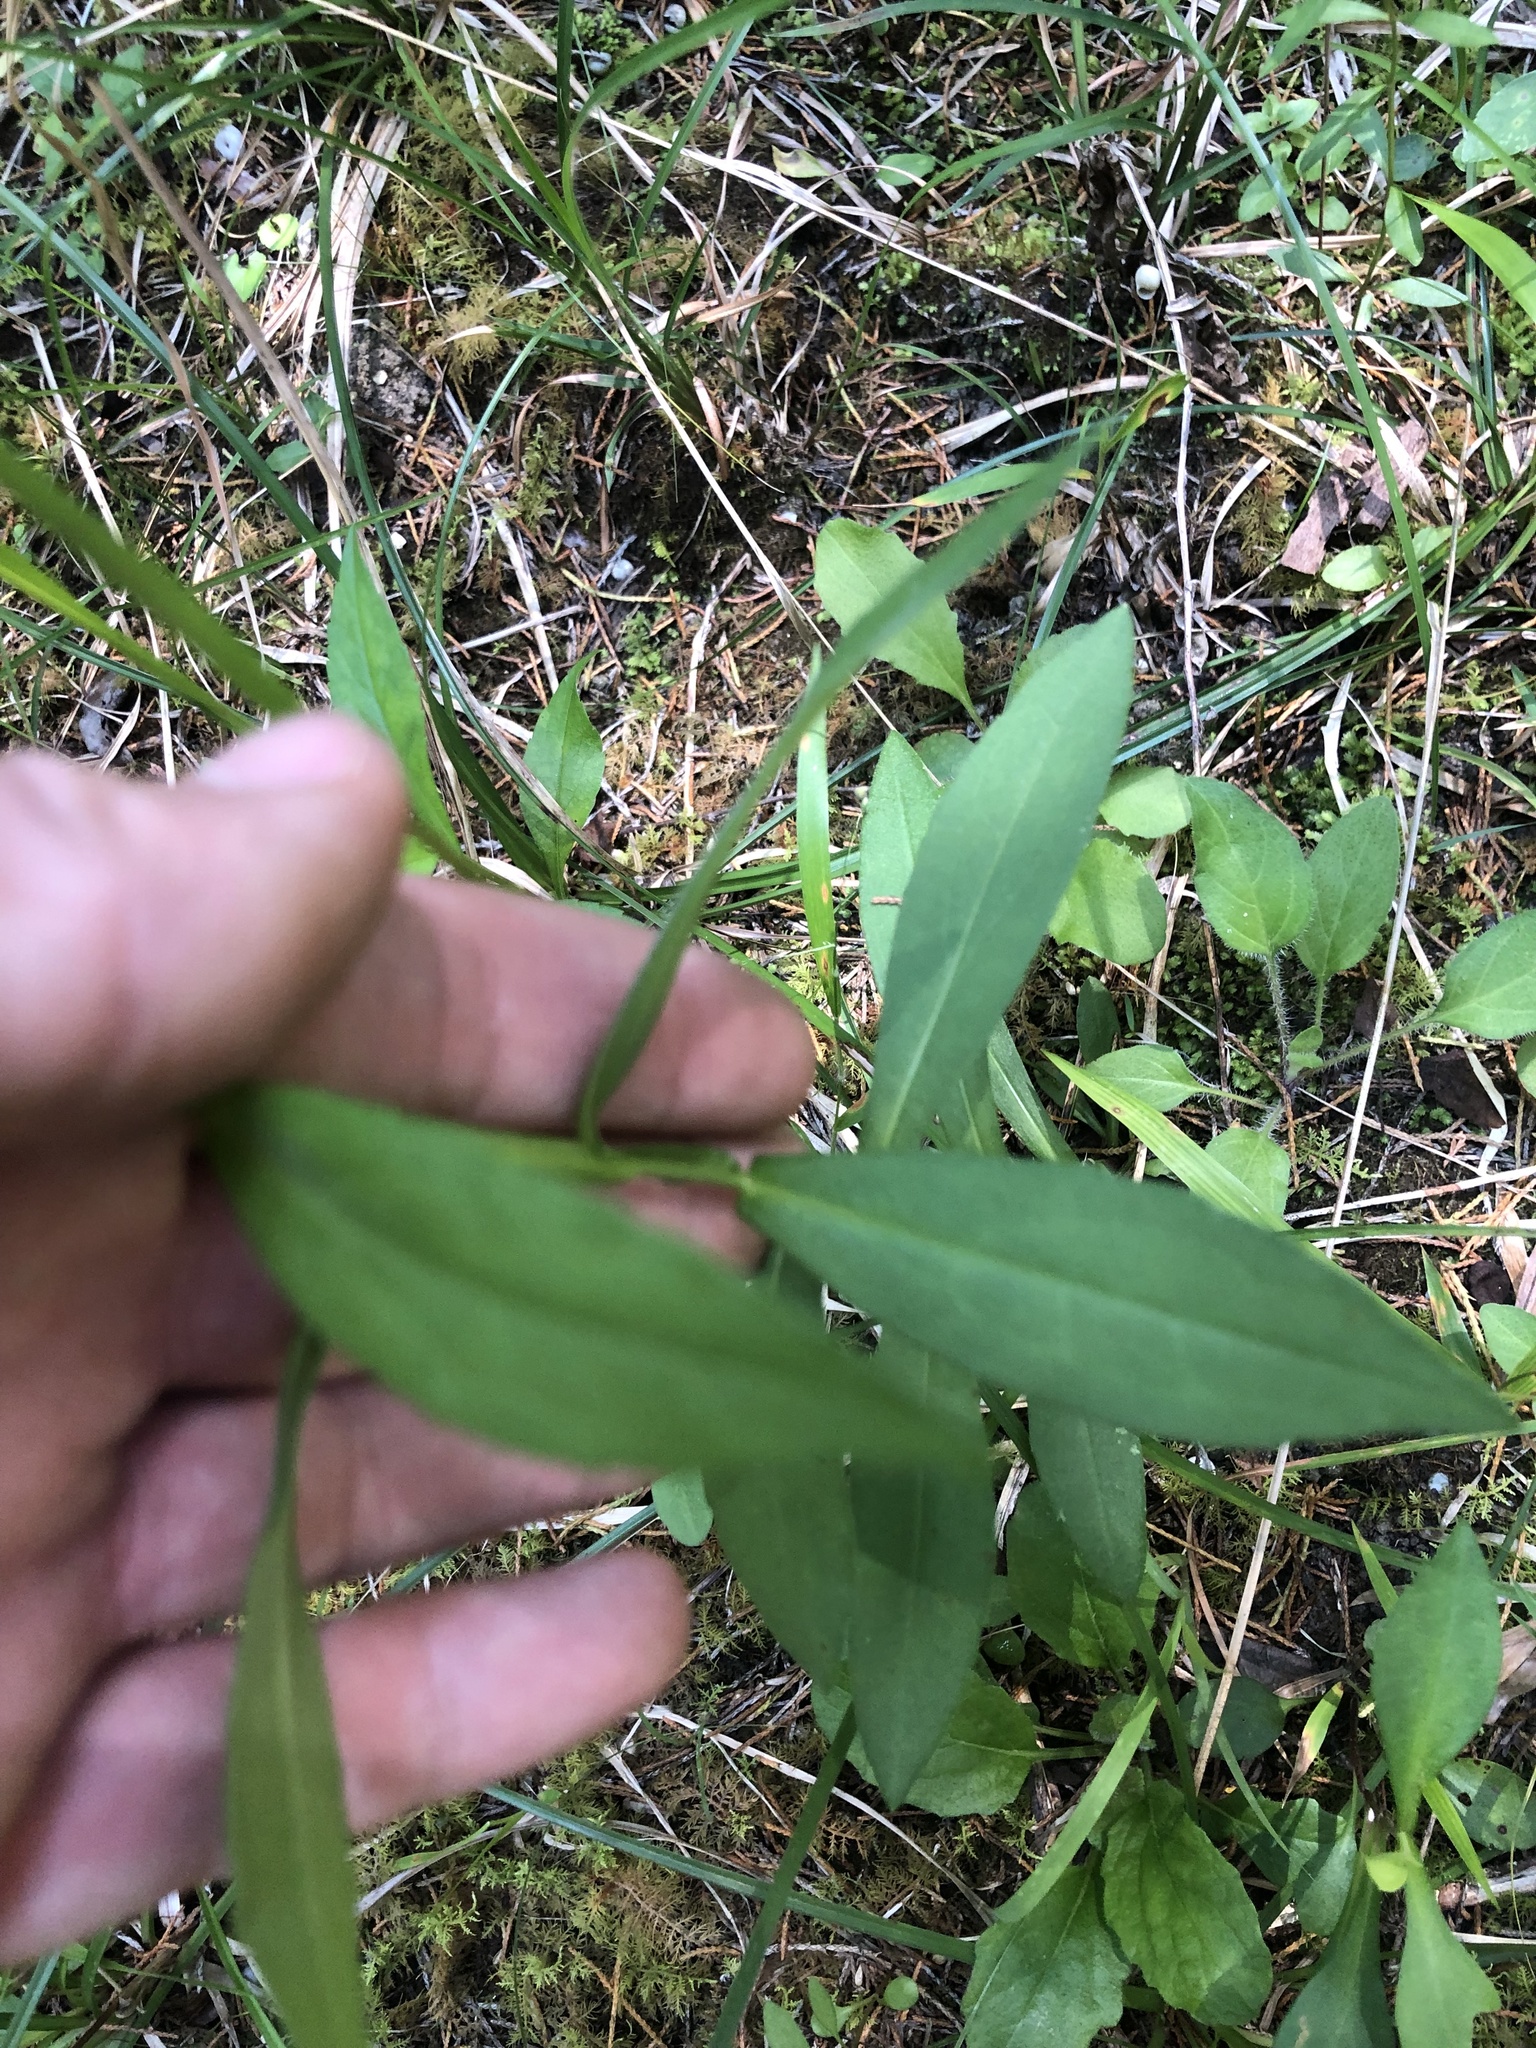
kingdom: Plantae
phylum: Tracheophyta
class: Magnoliopsida
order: Asterales
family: Asteraceae
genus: Helenium
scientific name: Helenium autumnale
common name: Sneezeweed
